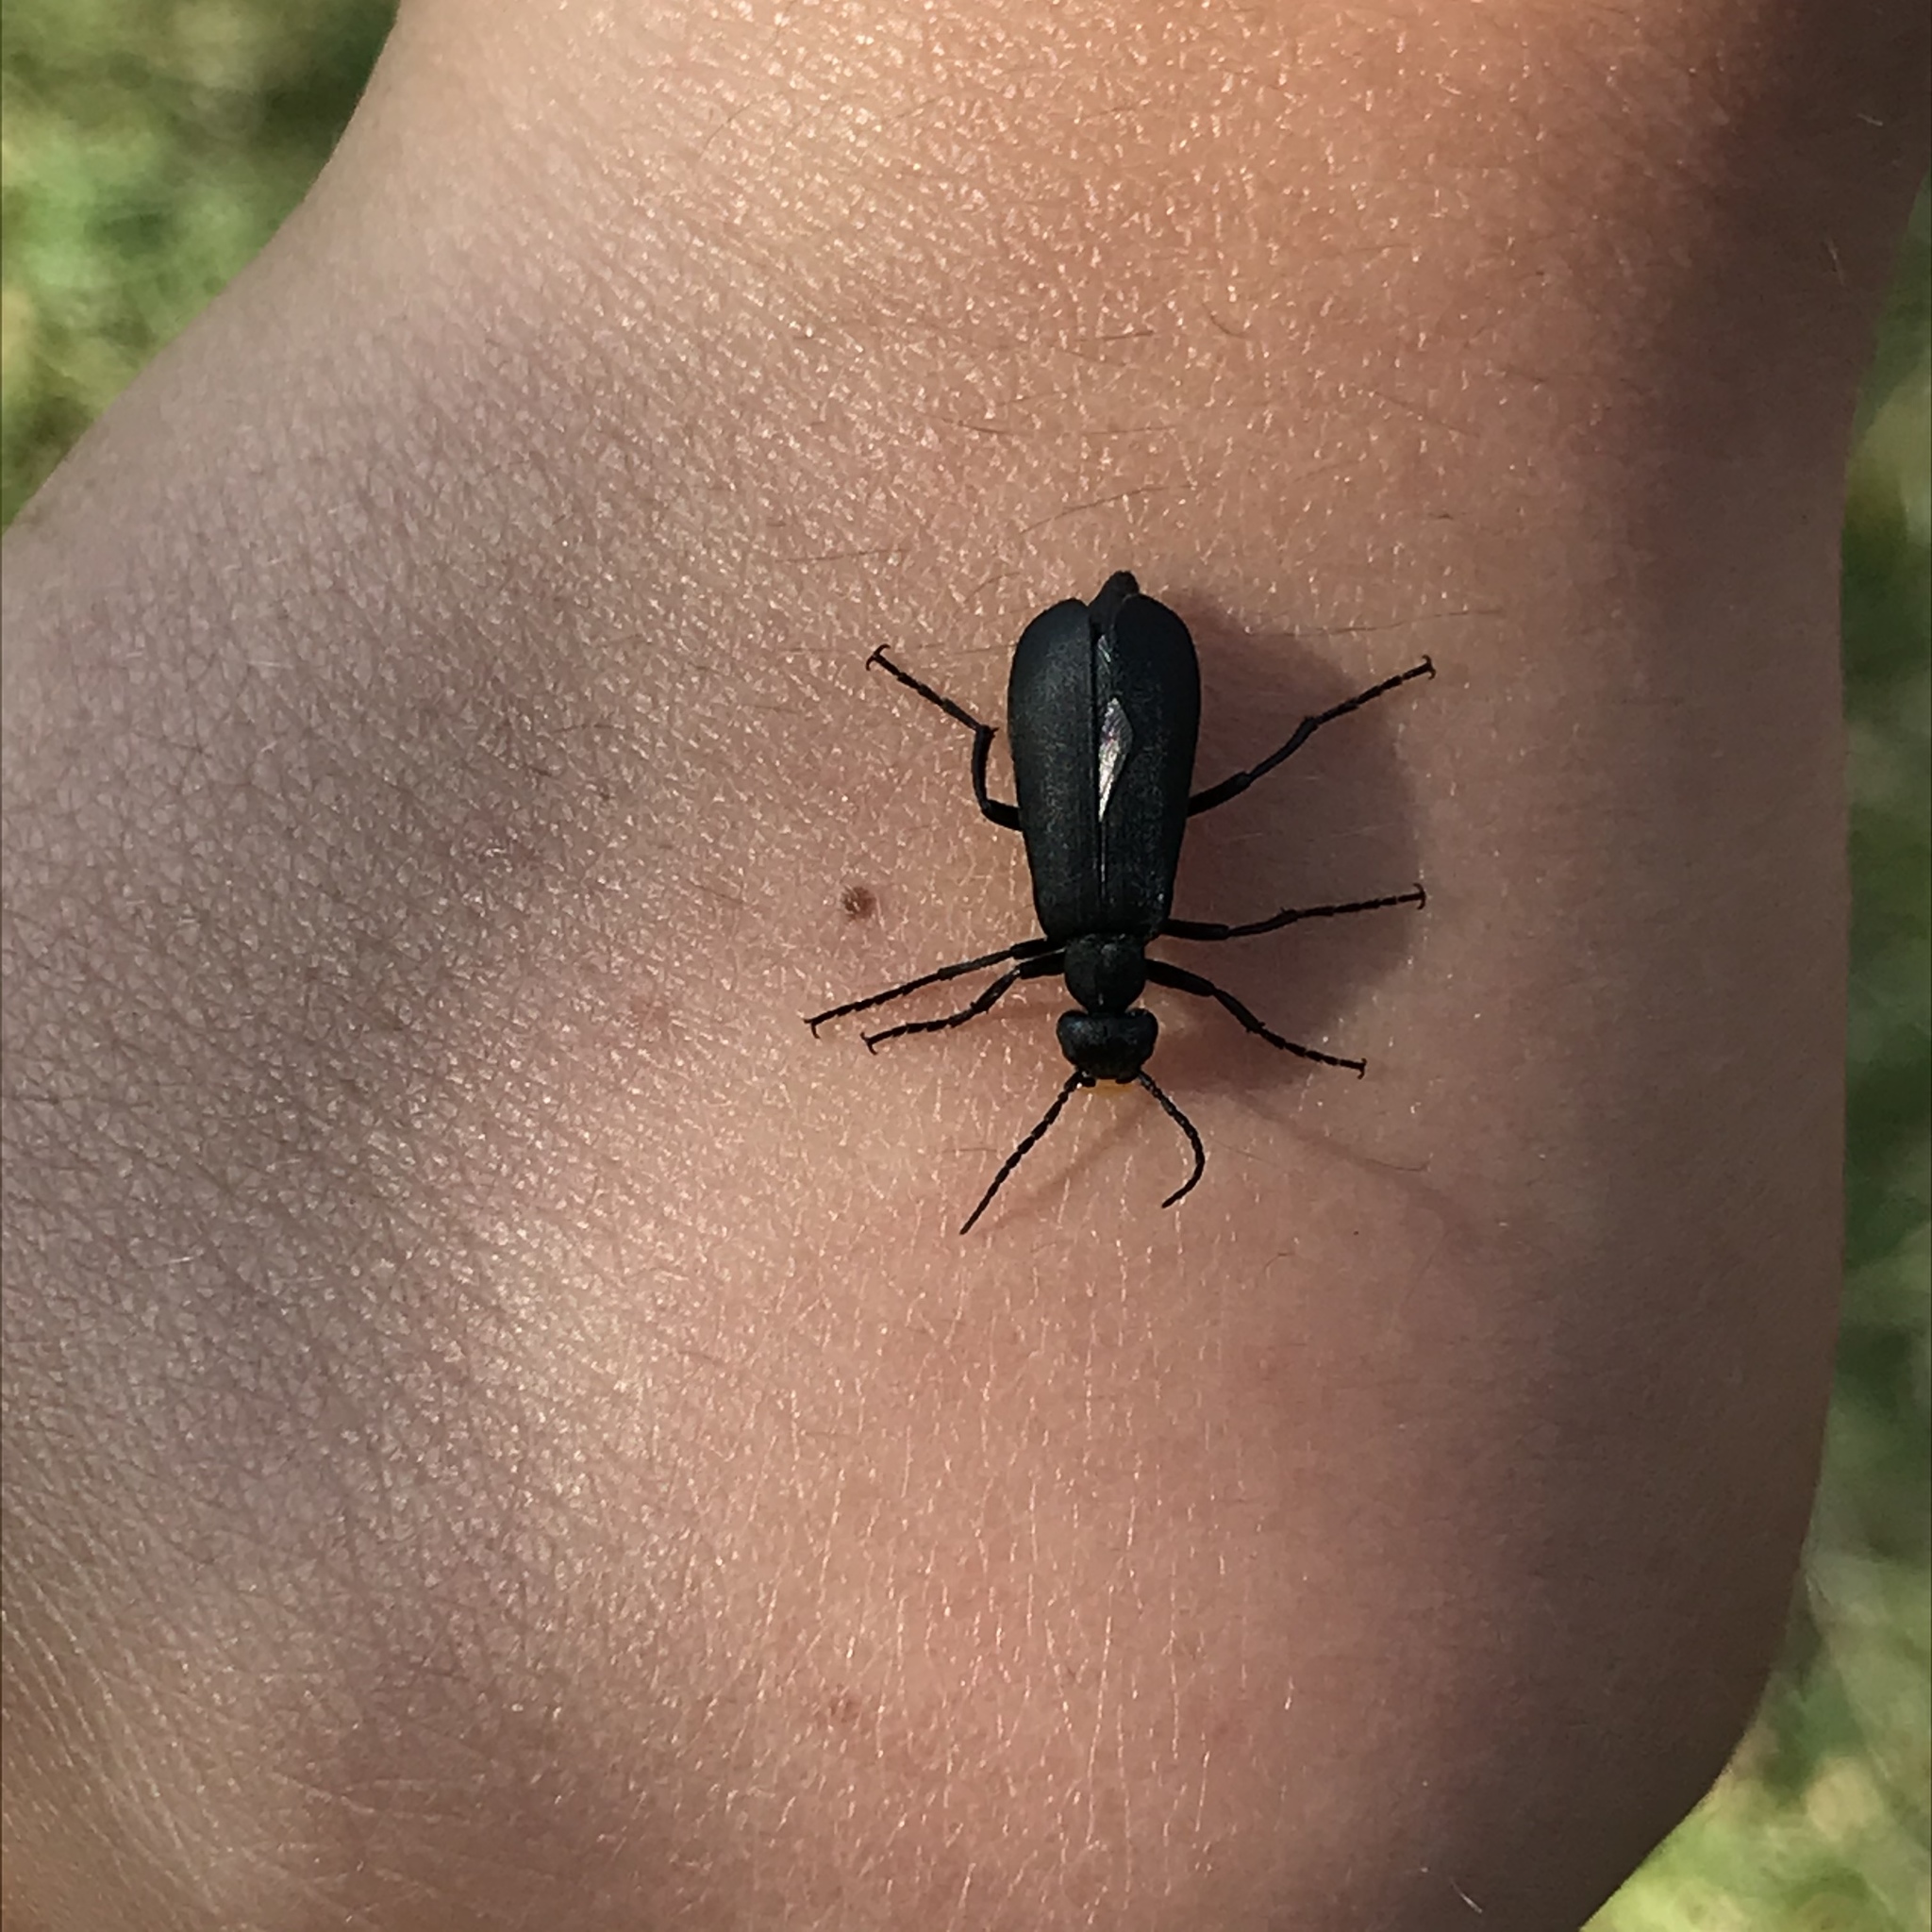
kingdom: Animalia
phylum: Arthropoda
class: Insecta
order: Coleoptera
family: Meloidae
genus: Epicauta
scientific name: Epicauta pensylvanica
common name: Black blister beetle
